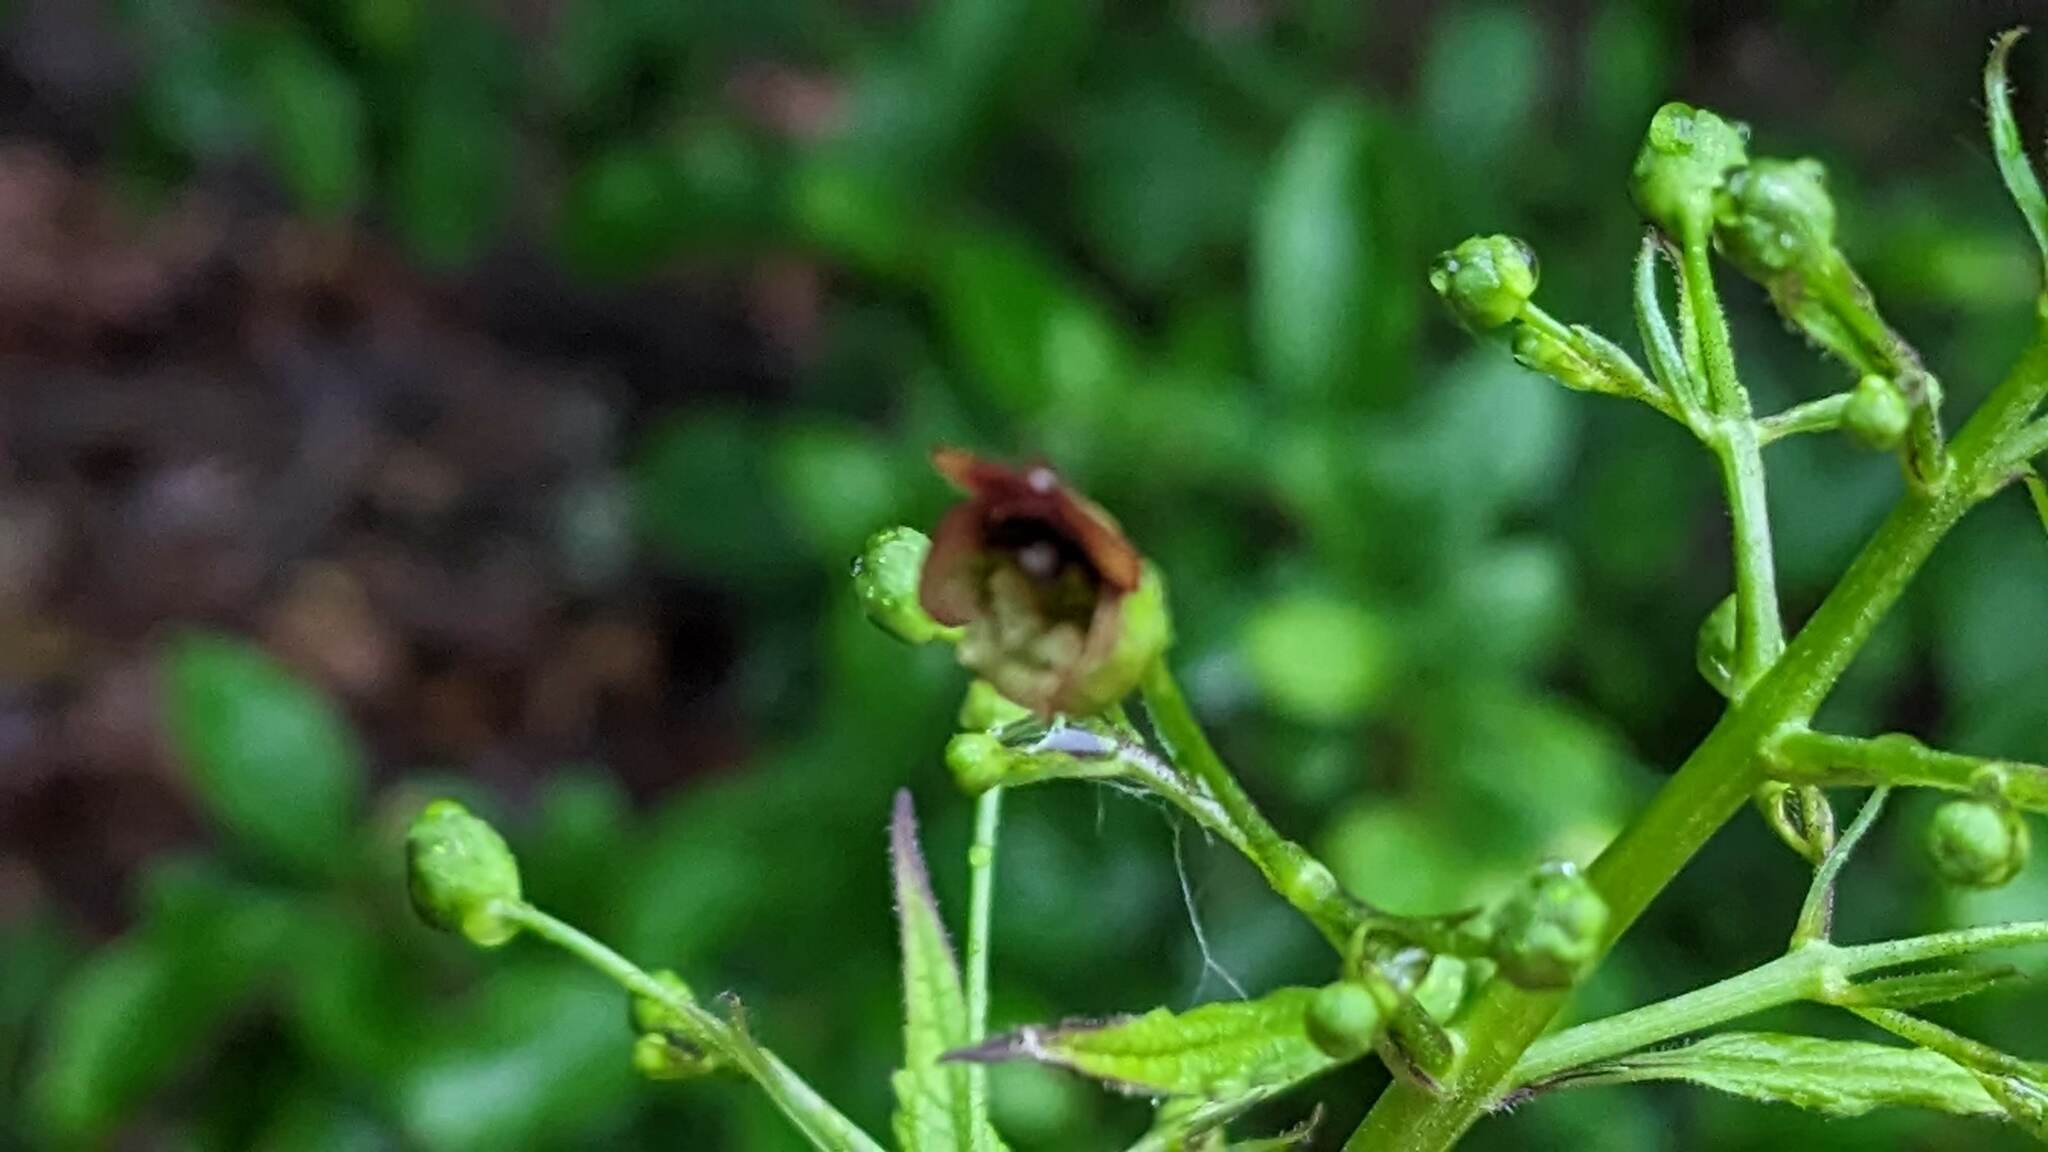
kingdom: Plantae
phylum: Tracheophyta
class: Magnoliopsida
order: Lamiales
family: Scrophulariaceae
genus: Scrophularia
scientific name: Scrophularia marilandica
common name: Eastern figwort
